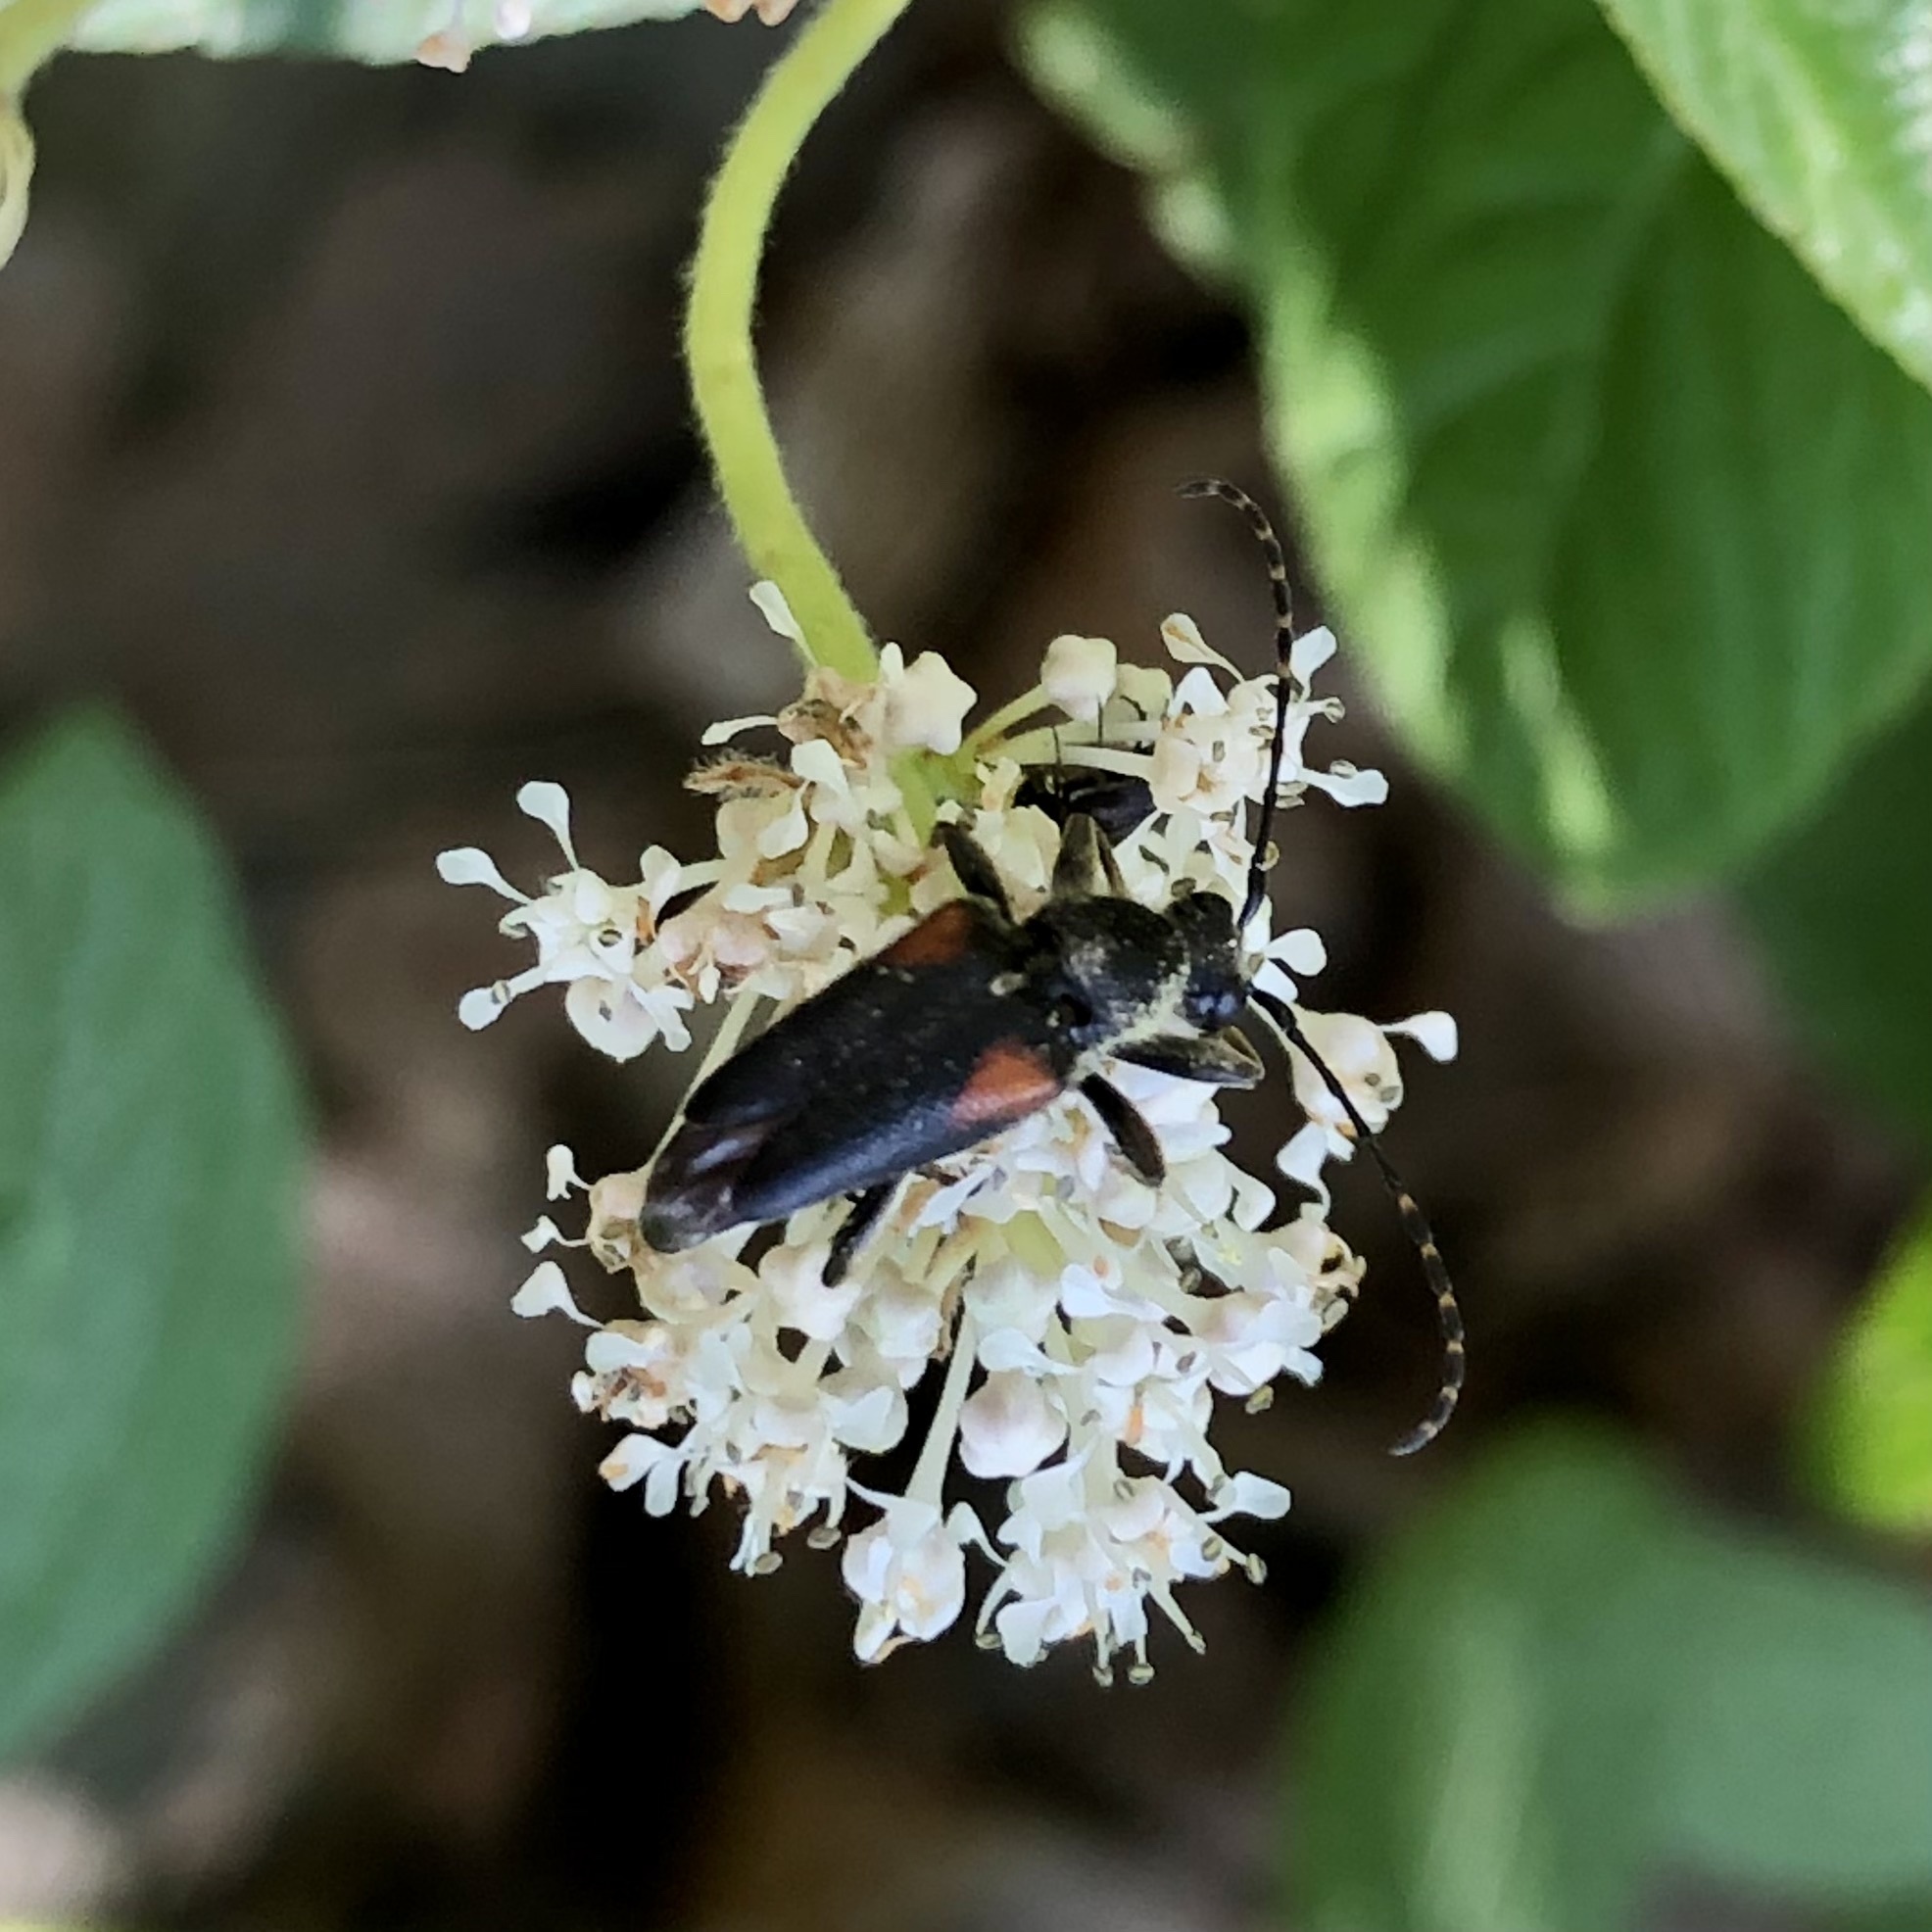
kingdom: Animalia
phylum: Arthropoda
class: Insecta
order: Coleoptera
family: Cerambycidae
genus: Brachyleptura
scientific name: Brachyleptura vagans
